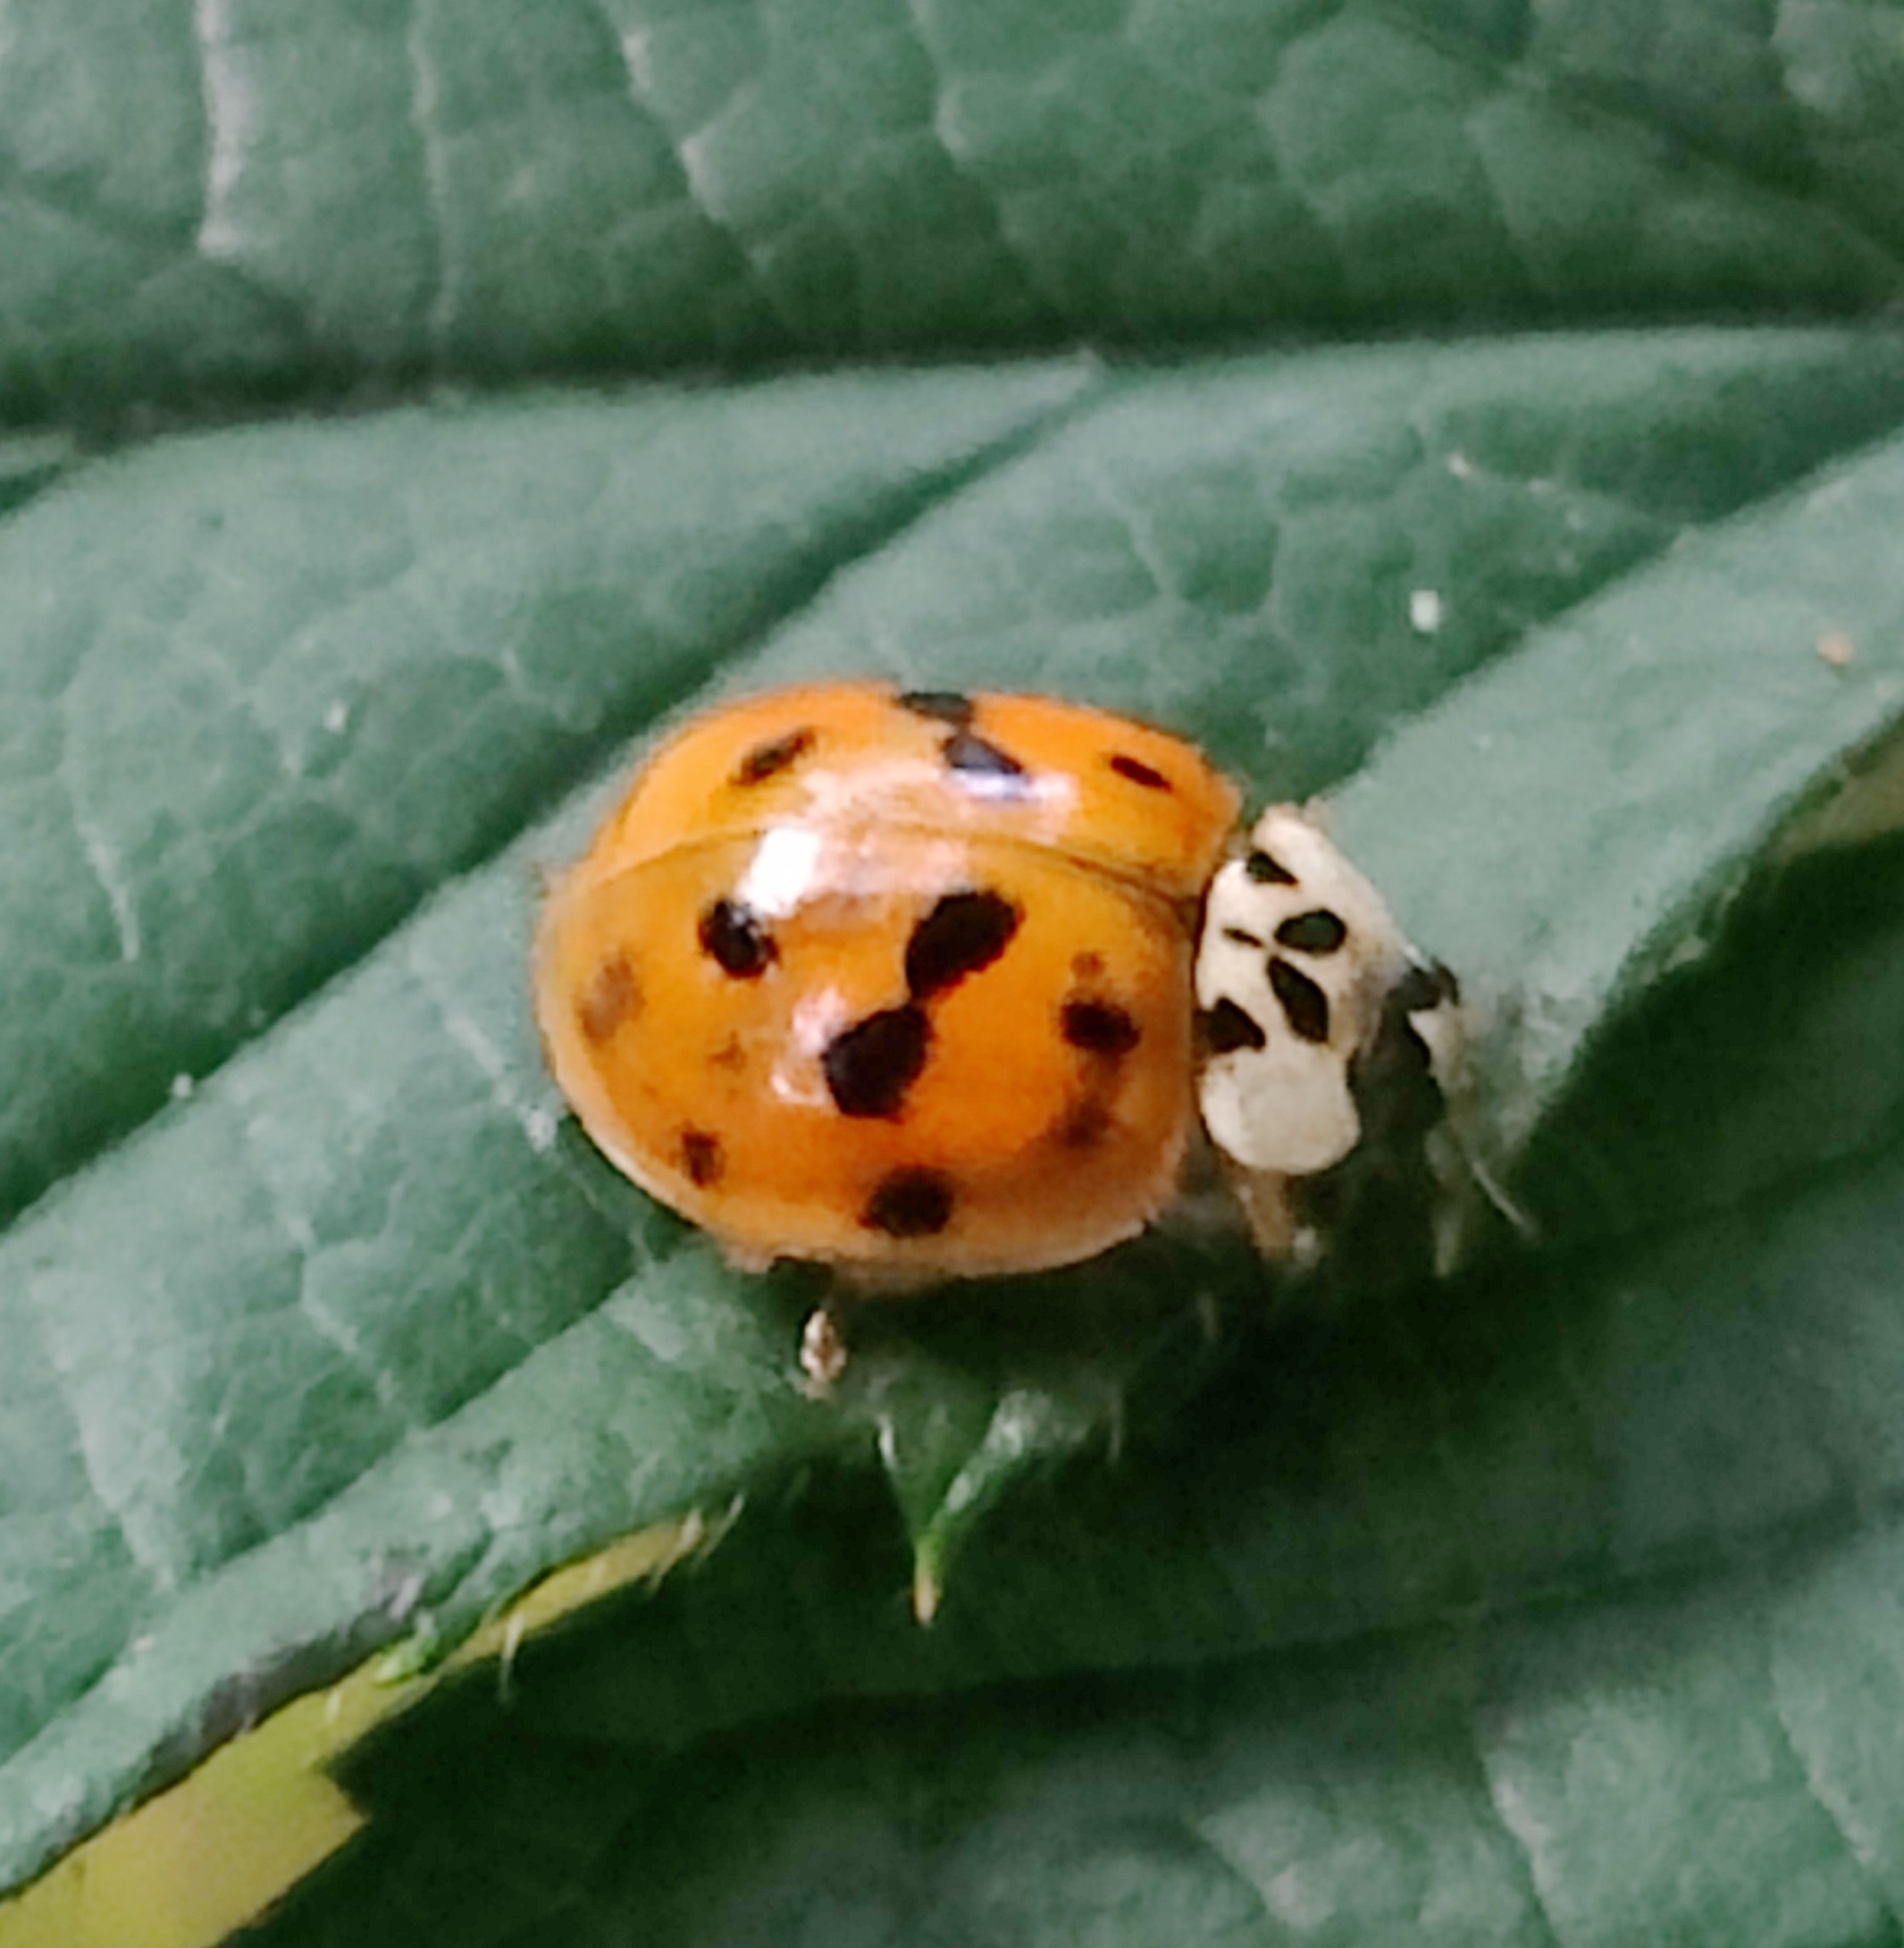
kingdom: Animalia
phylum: Arthropoda
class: Insecta
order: Coleoptera
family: Coccinellidae
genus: Harmonia
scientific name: Harmonia axyridis
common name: Harlequin ladybird
